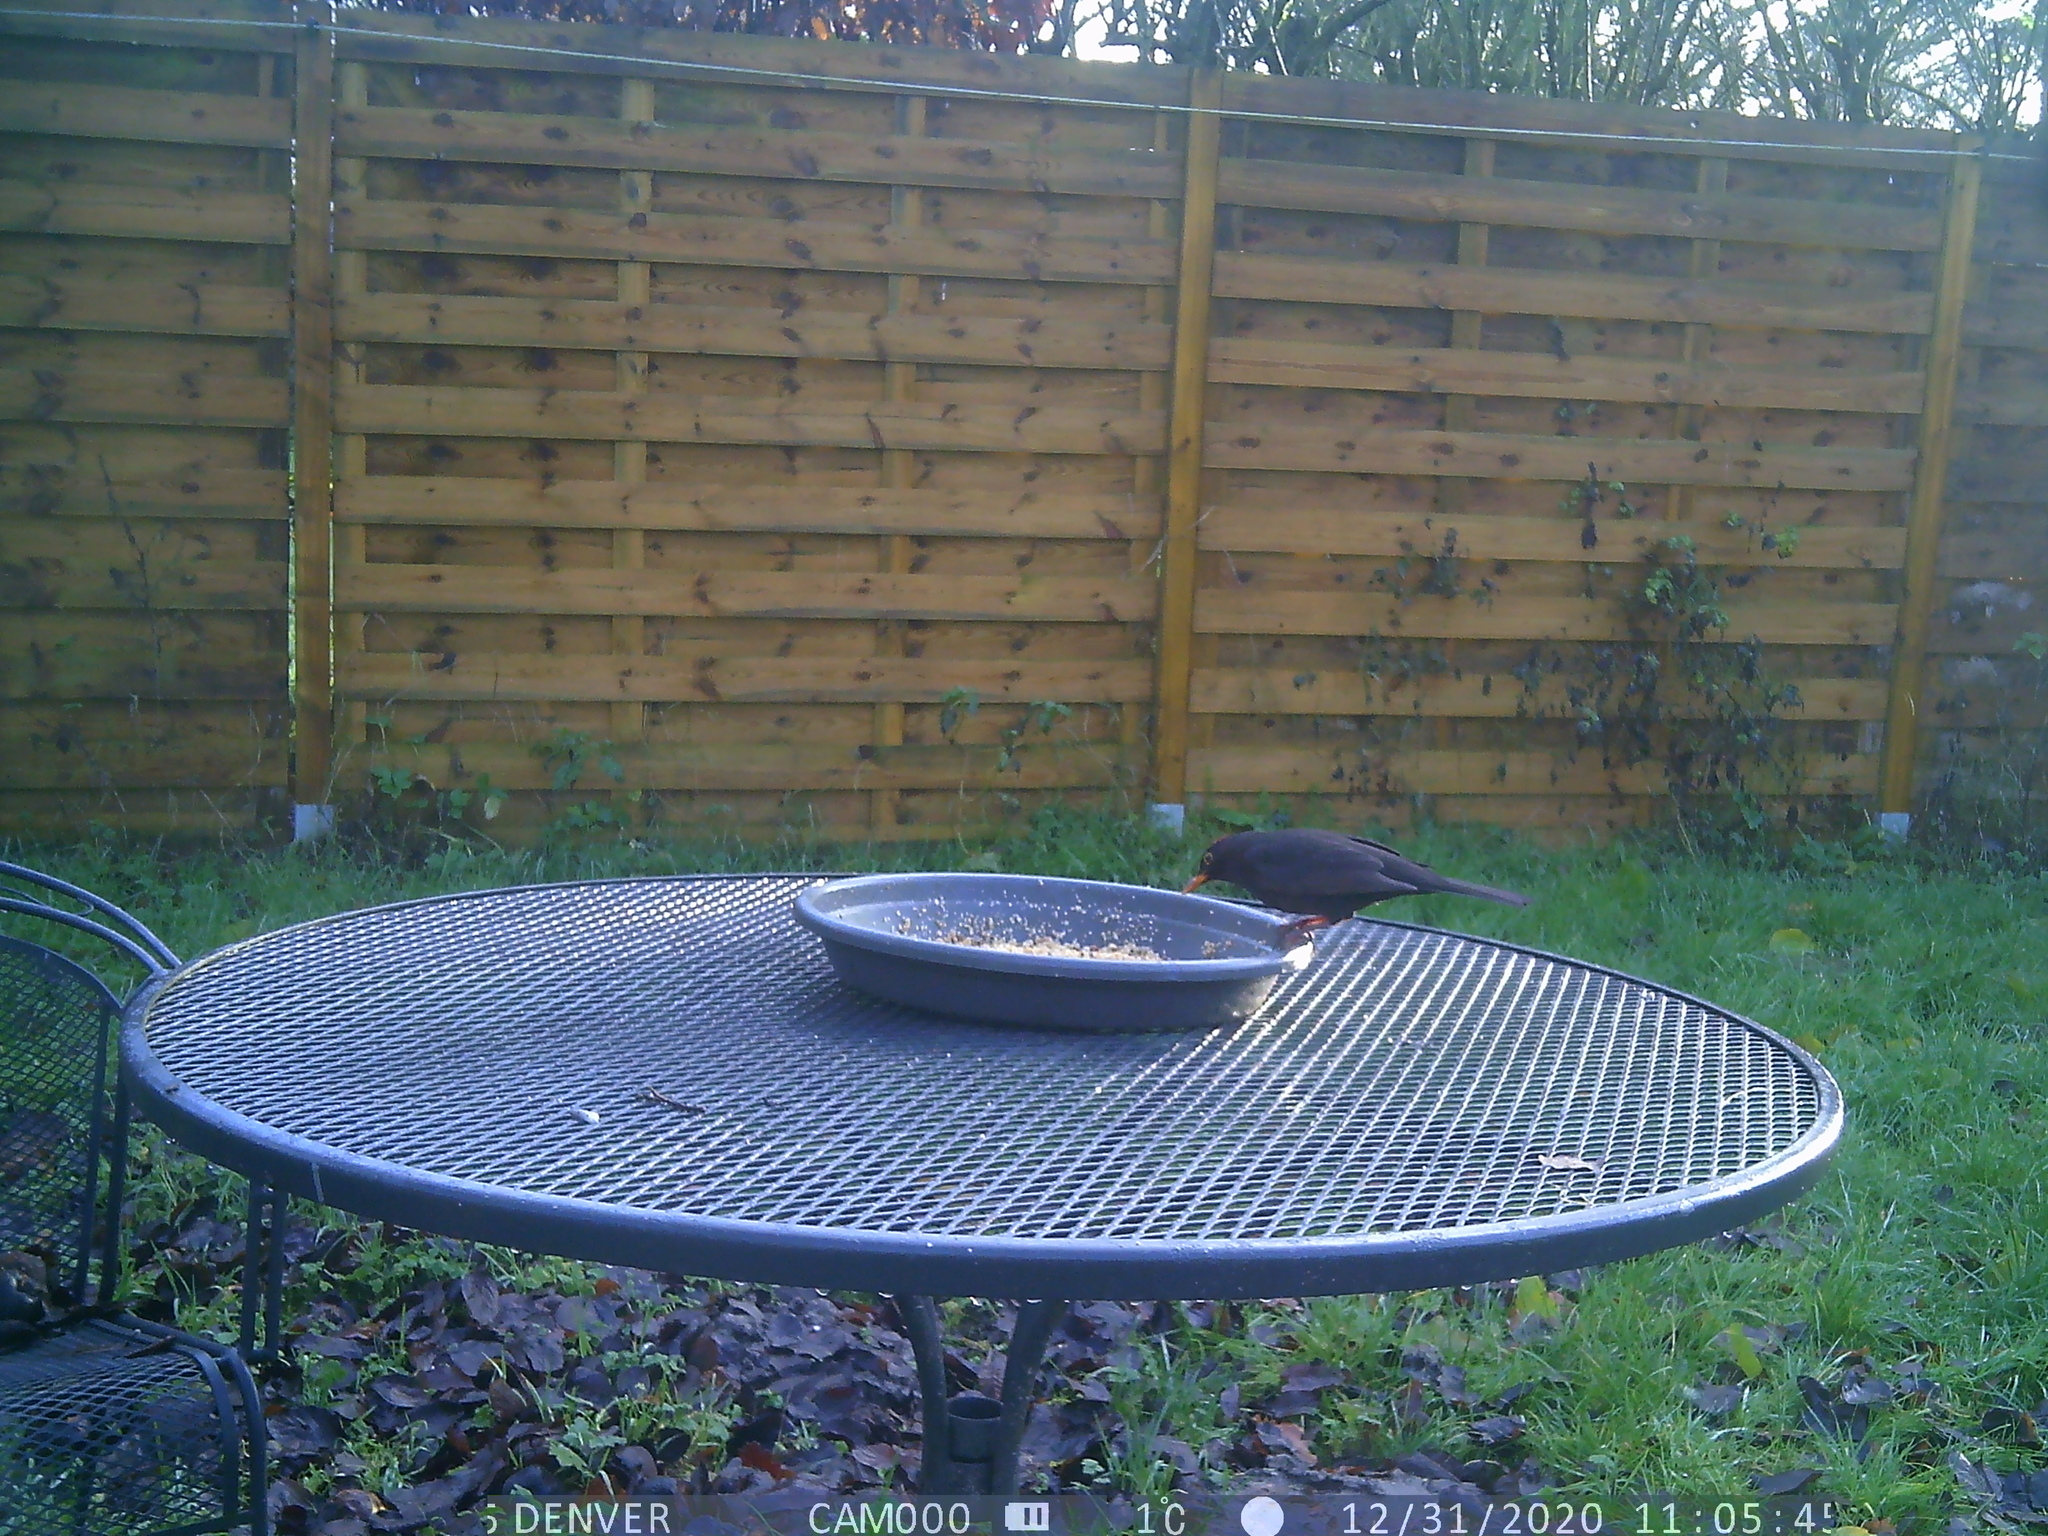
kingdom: Animalia
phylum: Chordata
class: Aves
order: Passeriformes
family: Turdidae
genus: Turdus
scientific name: Turdus merula
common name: Common blackbird
